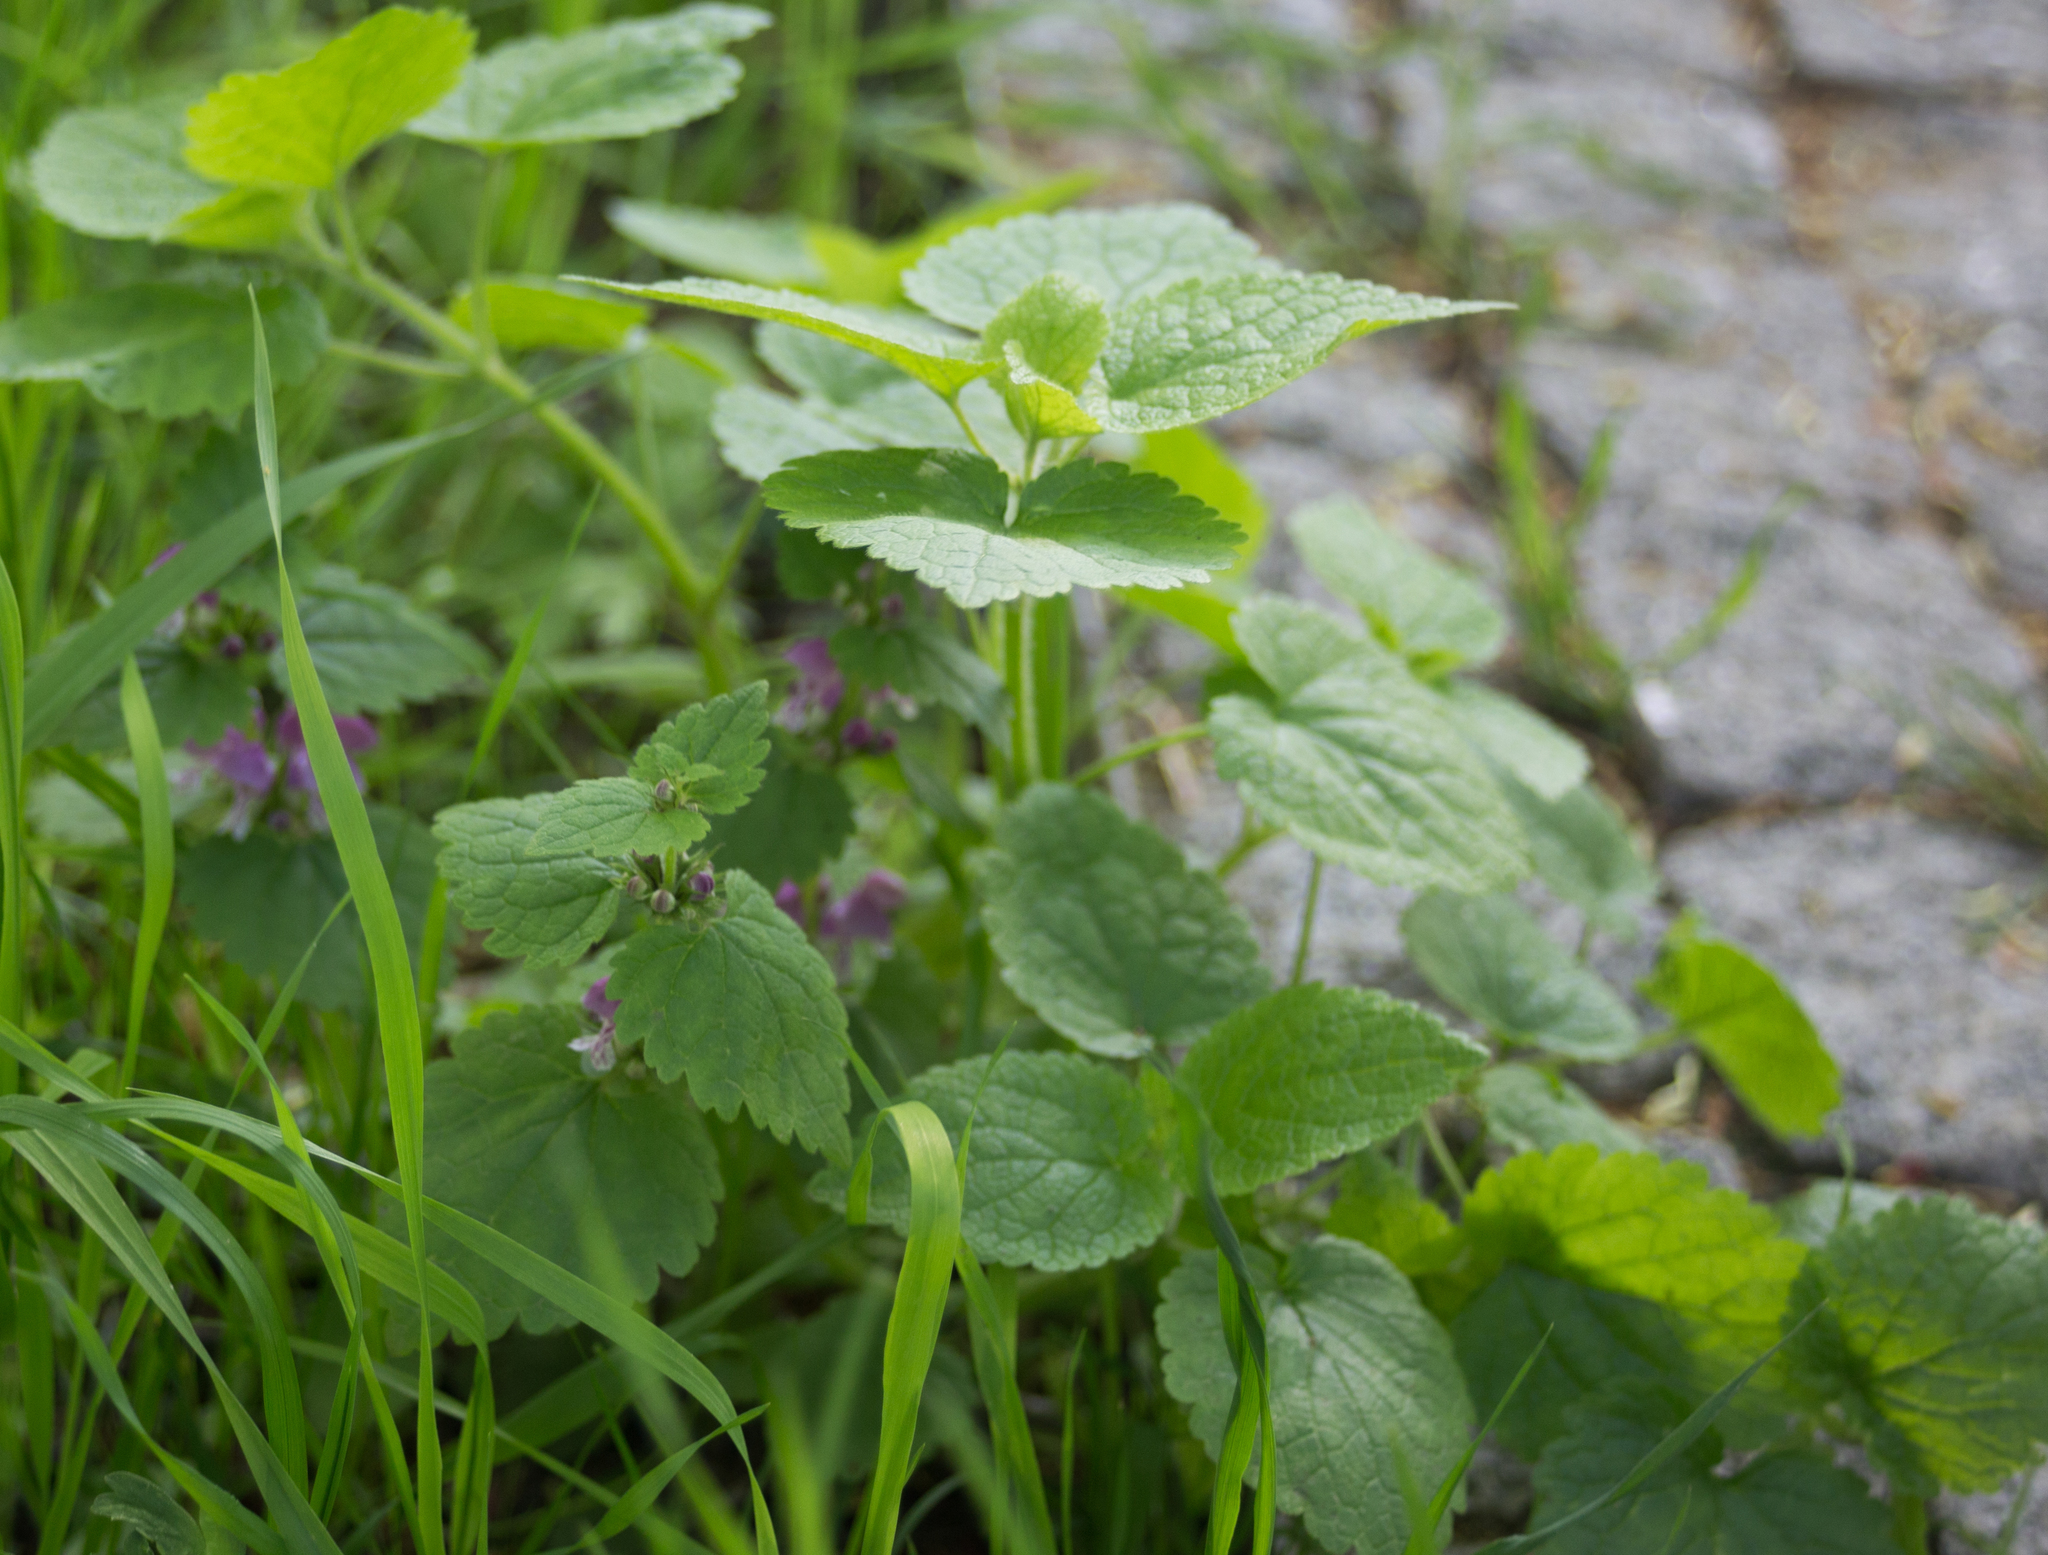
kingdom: Plantae
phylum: Tracheophyta
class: Magnoliopsida
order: Lamiales
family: Lamiaceae
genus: Lamium
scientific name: Lamium maculatum
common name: Spotted dead-nettle
